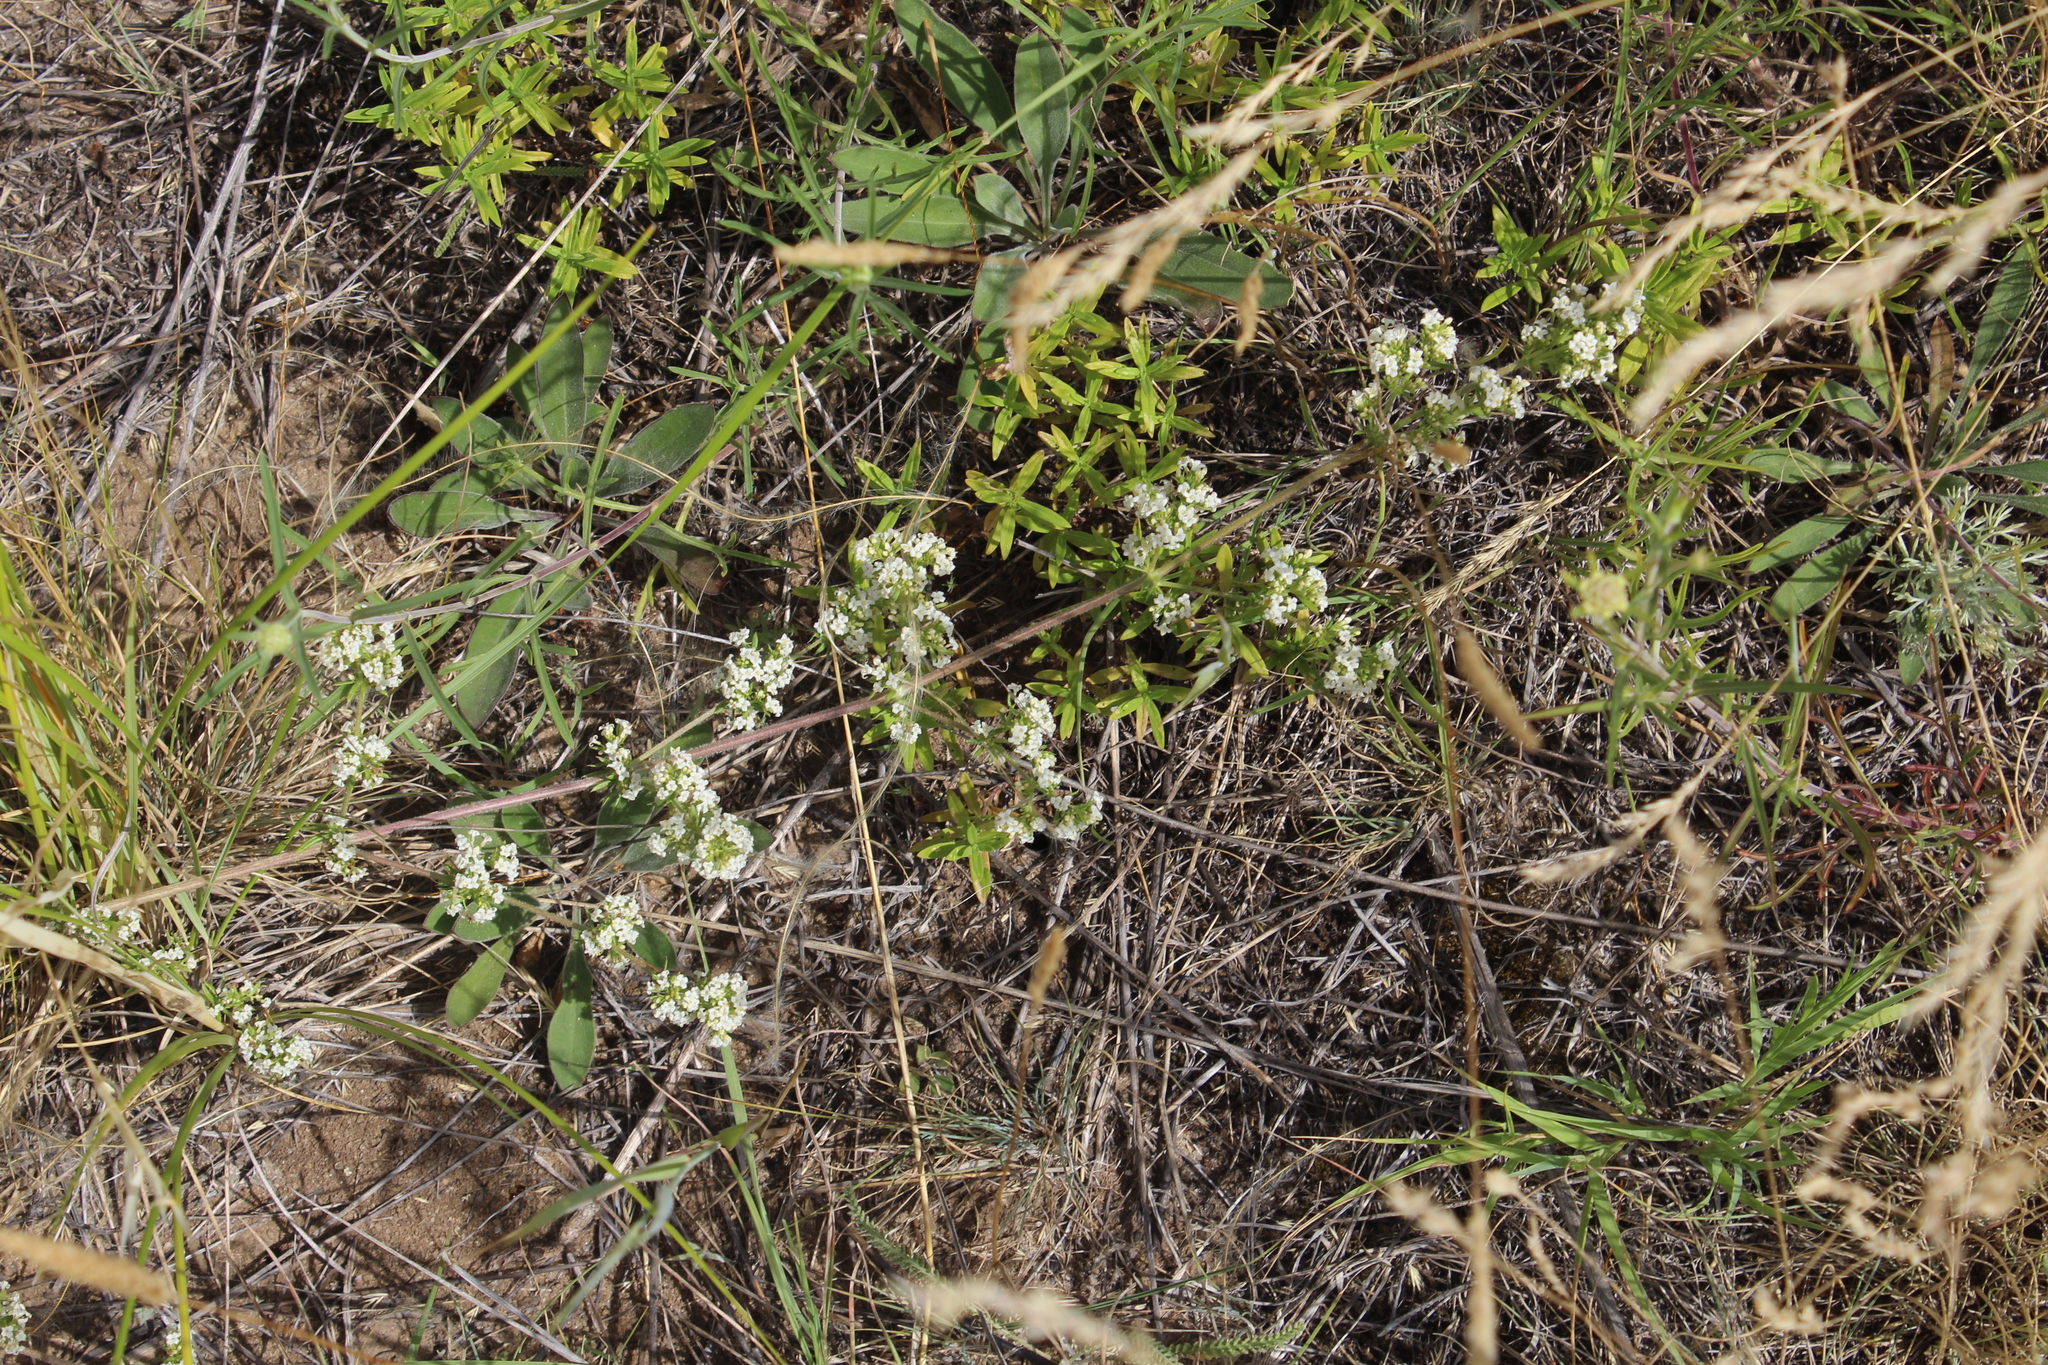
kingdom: Plantae
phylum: Tracheophyta
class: Magnoliopsida
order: Gentianales
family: Rubiaceae
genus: Galium
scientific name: Galium humifusum
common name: Spreading bedstraw
